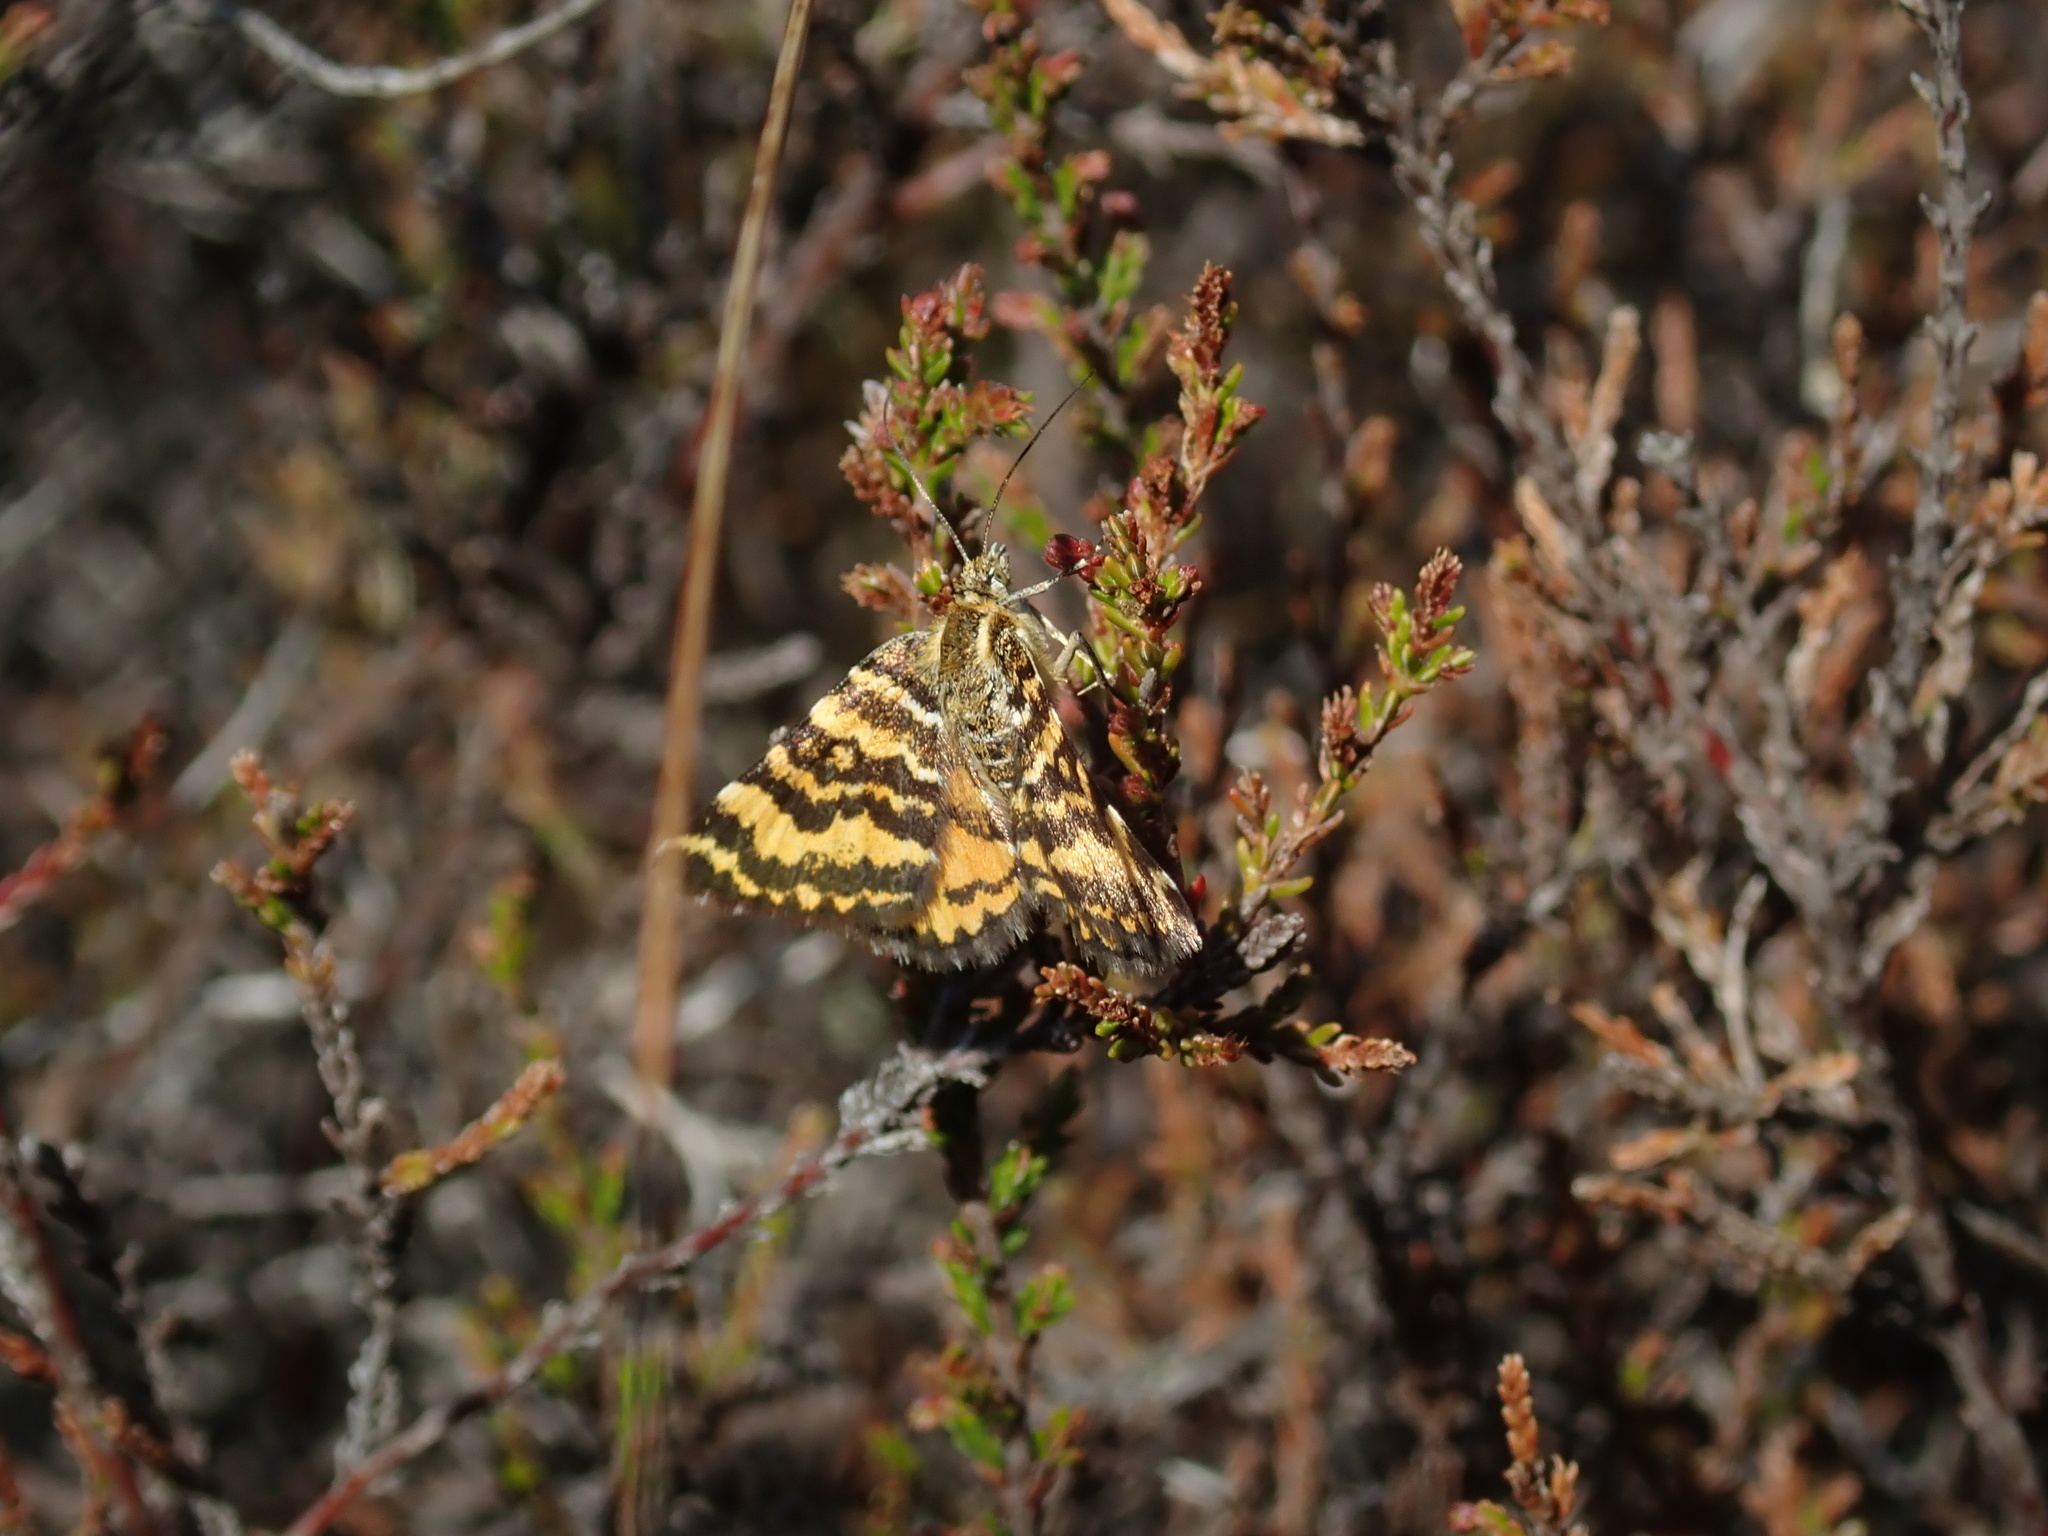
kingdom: Animalia
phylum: Arthropoda
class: Insecta
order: Lepidoptera
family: Geometridae
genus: Notoreas
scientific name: Notoreas perornata
